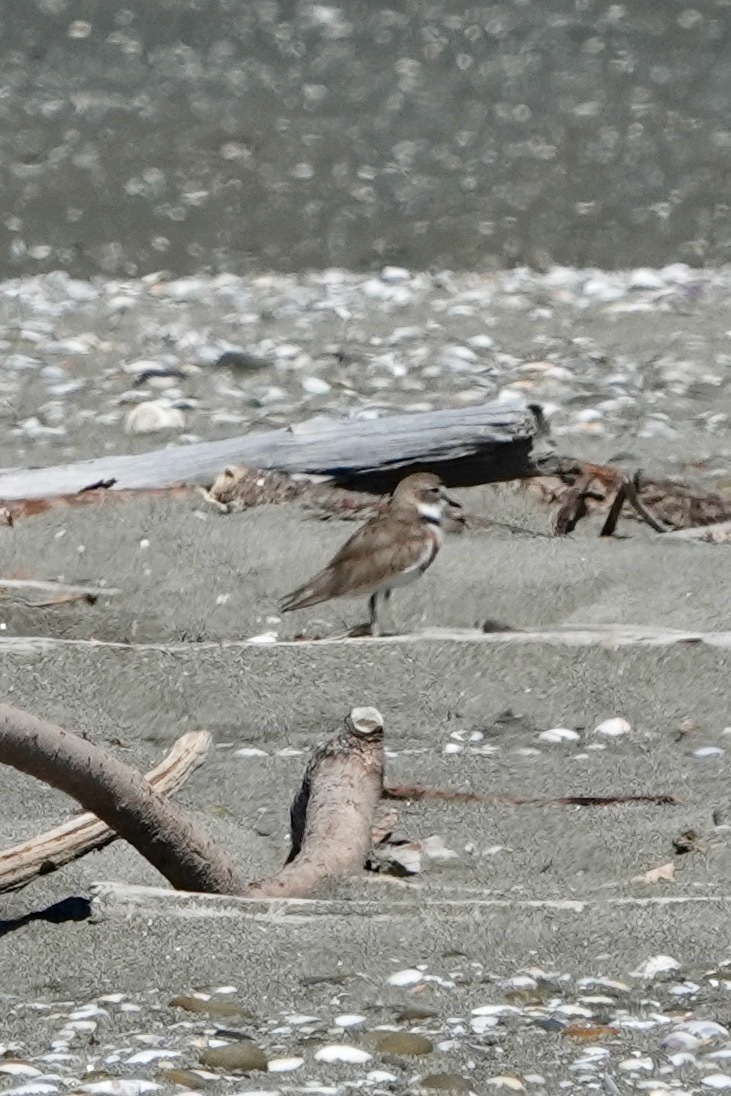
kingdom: Animalia
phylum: Chordata
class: Aves
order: Charadriiformes
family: Charadriidae
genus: Anarhynchus
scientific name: Anarhynchus
